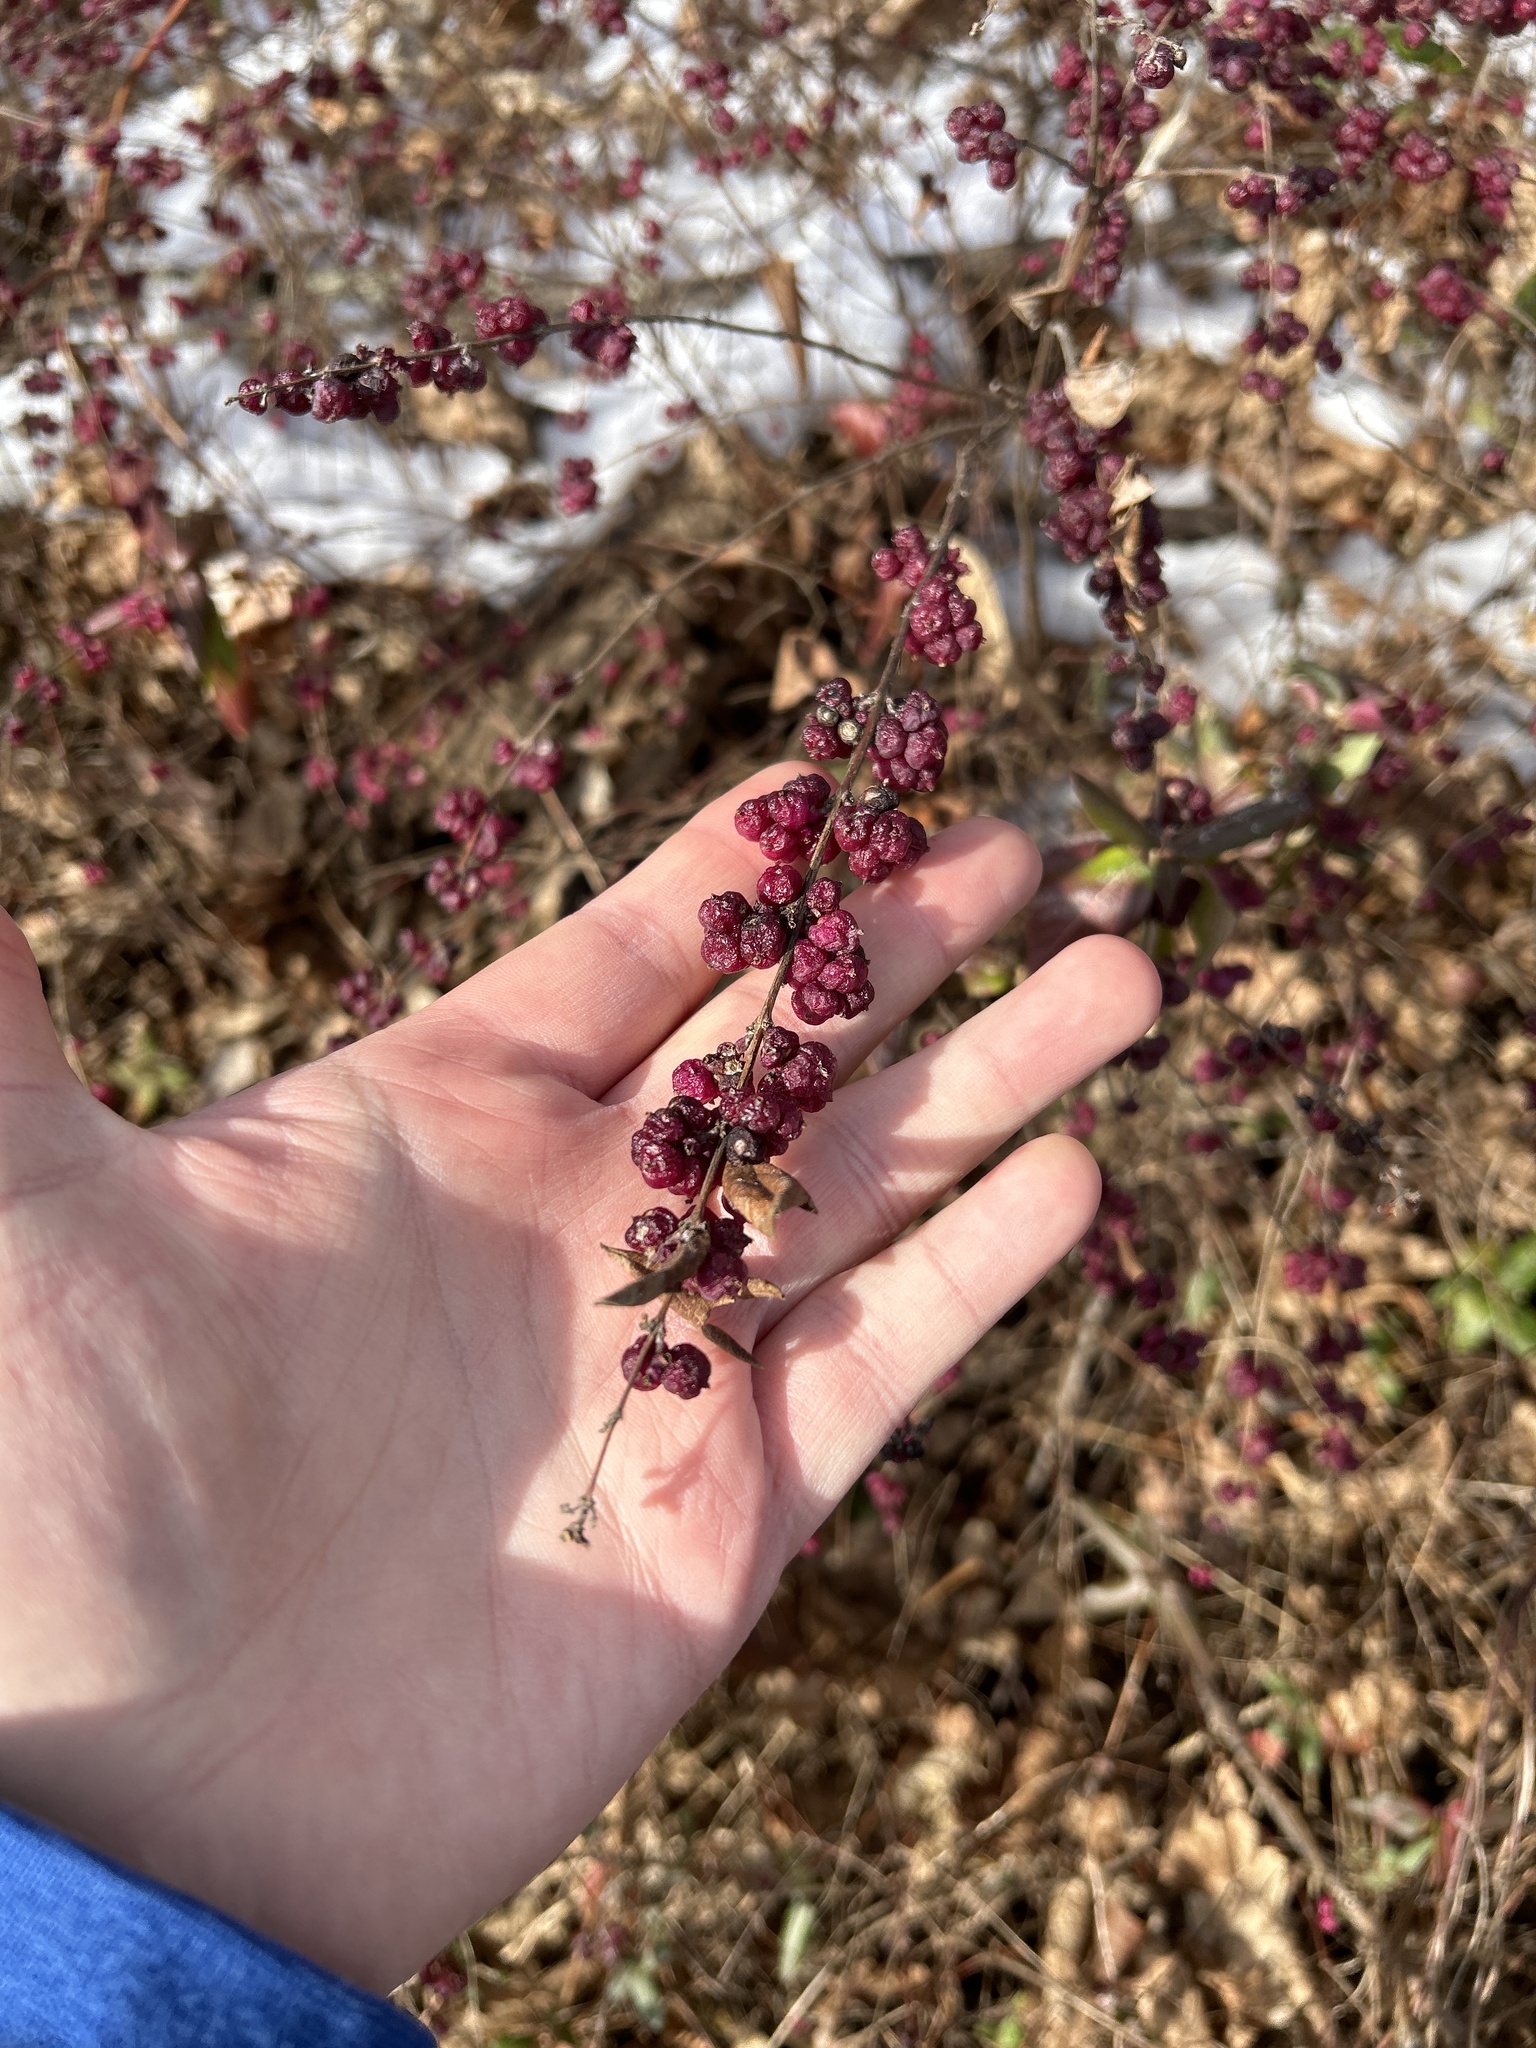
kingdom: Plantae
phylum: Tracheophyta
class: Magnoliopsida
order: Dipsacales
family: Caprifoliaceae
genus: Symphoricarpos
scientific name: Symphoricarpos orbiculatus
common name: Coralberry
